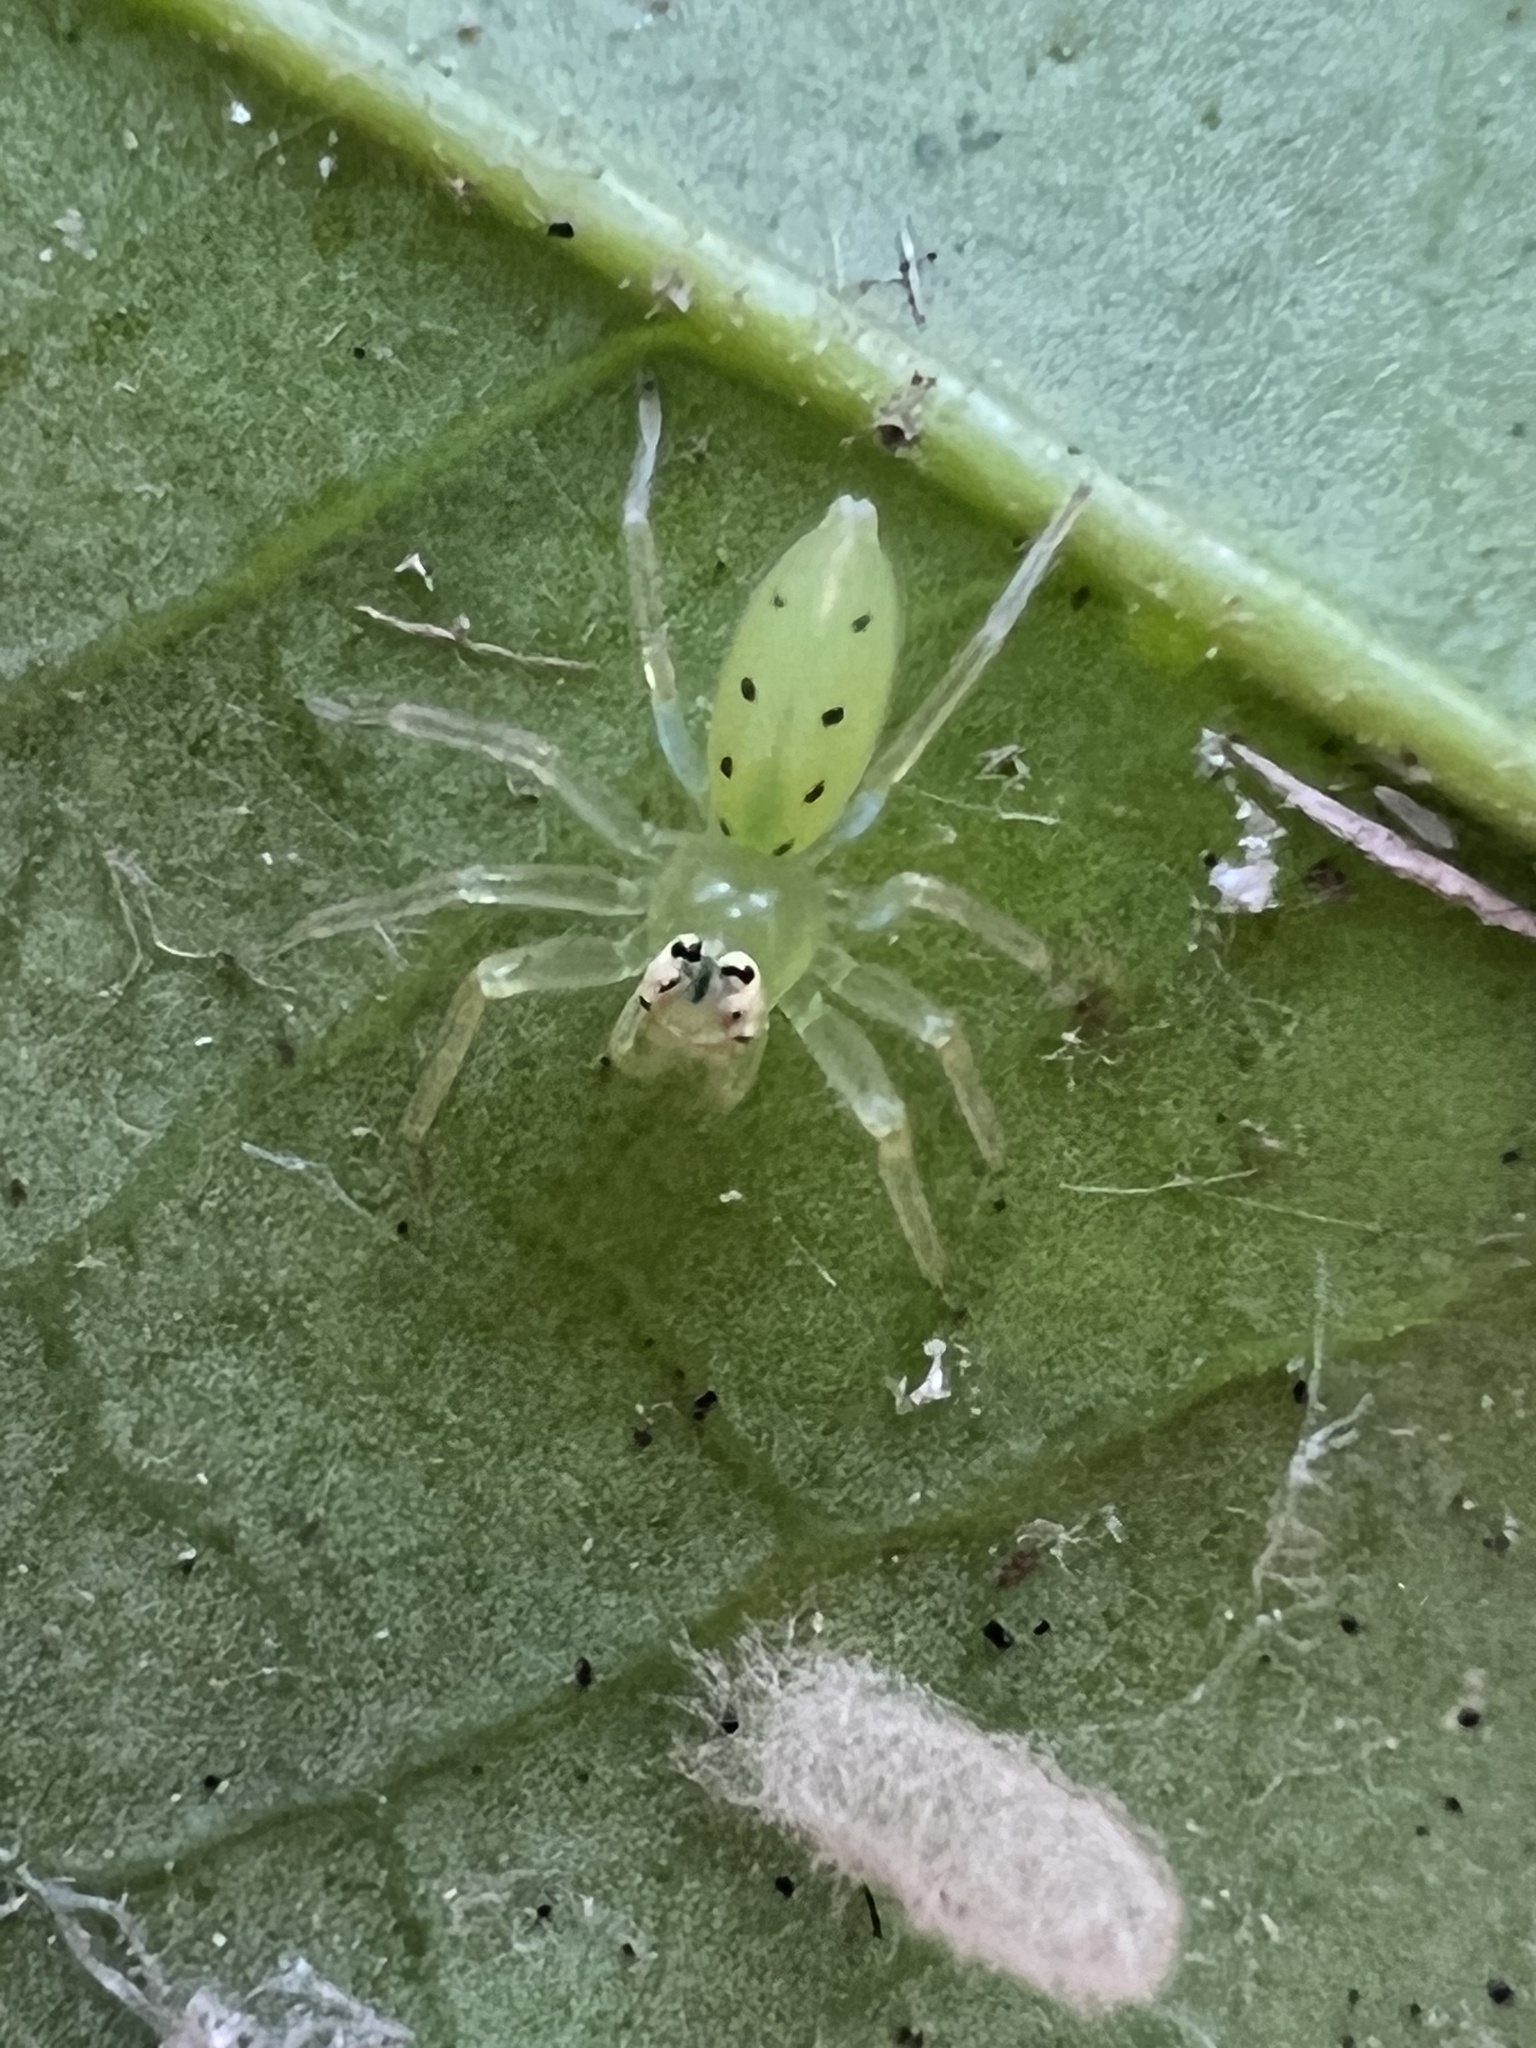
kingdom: Animalia
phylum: Arthropoda
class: Arachnida
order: Araneae
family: Salticidae
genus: Lyssomanes
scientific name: Lyssomanes viridis
